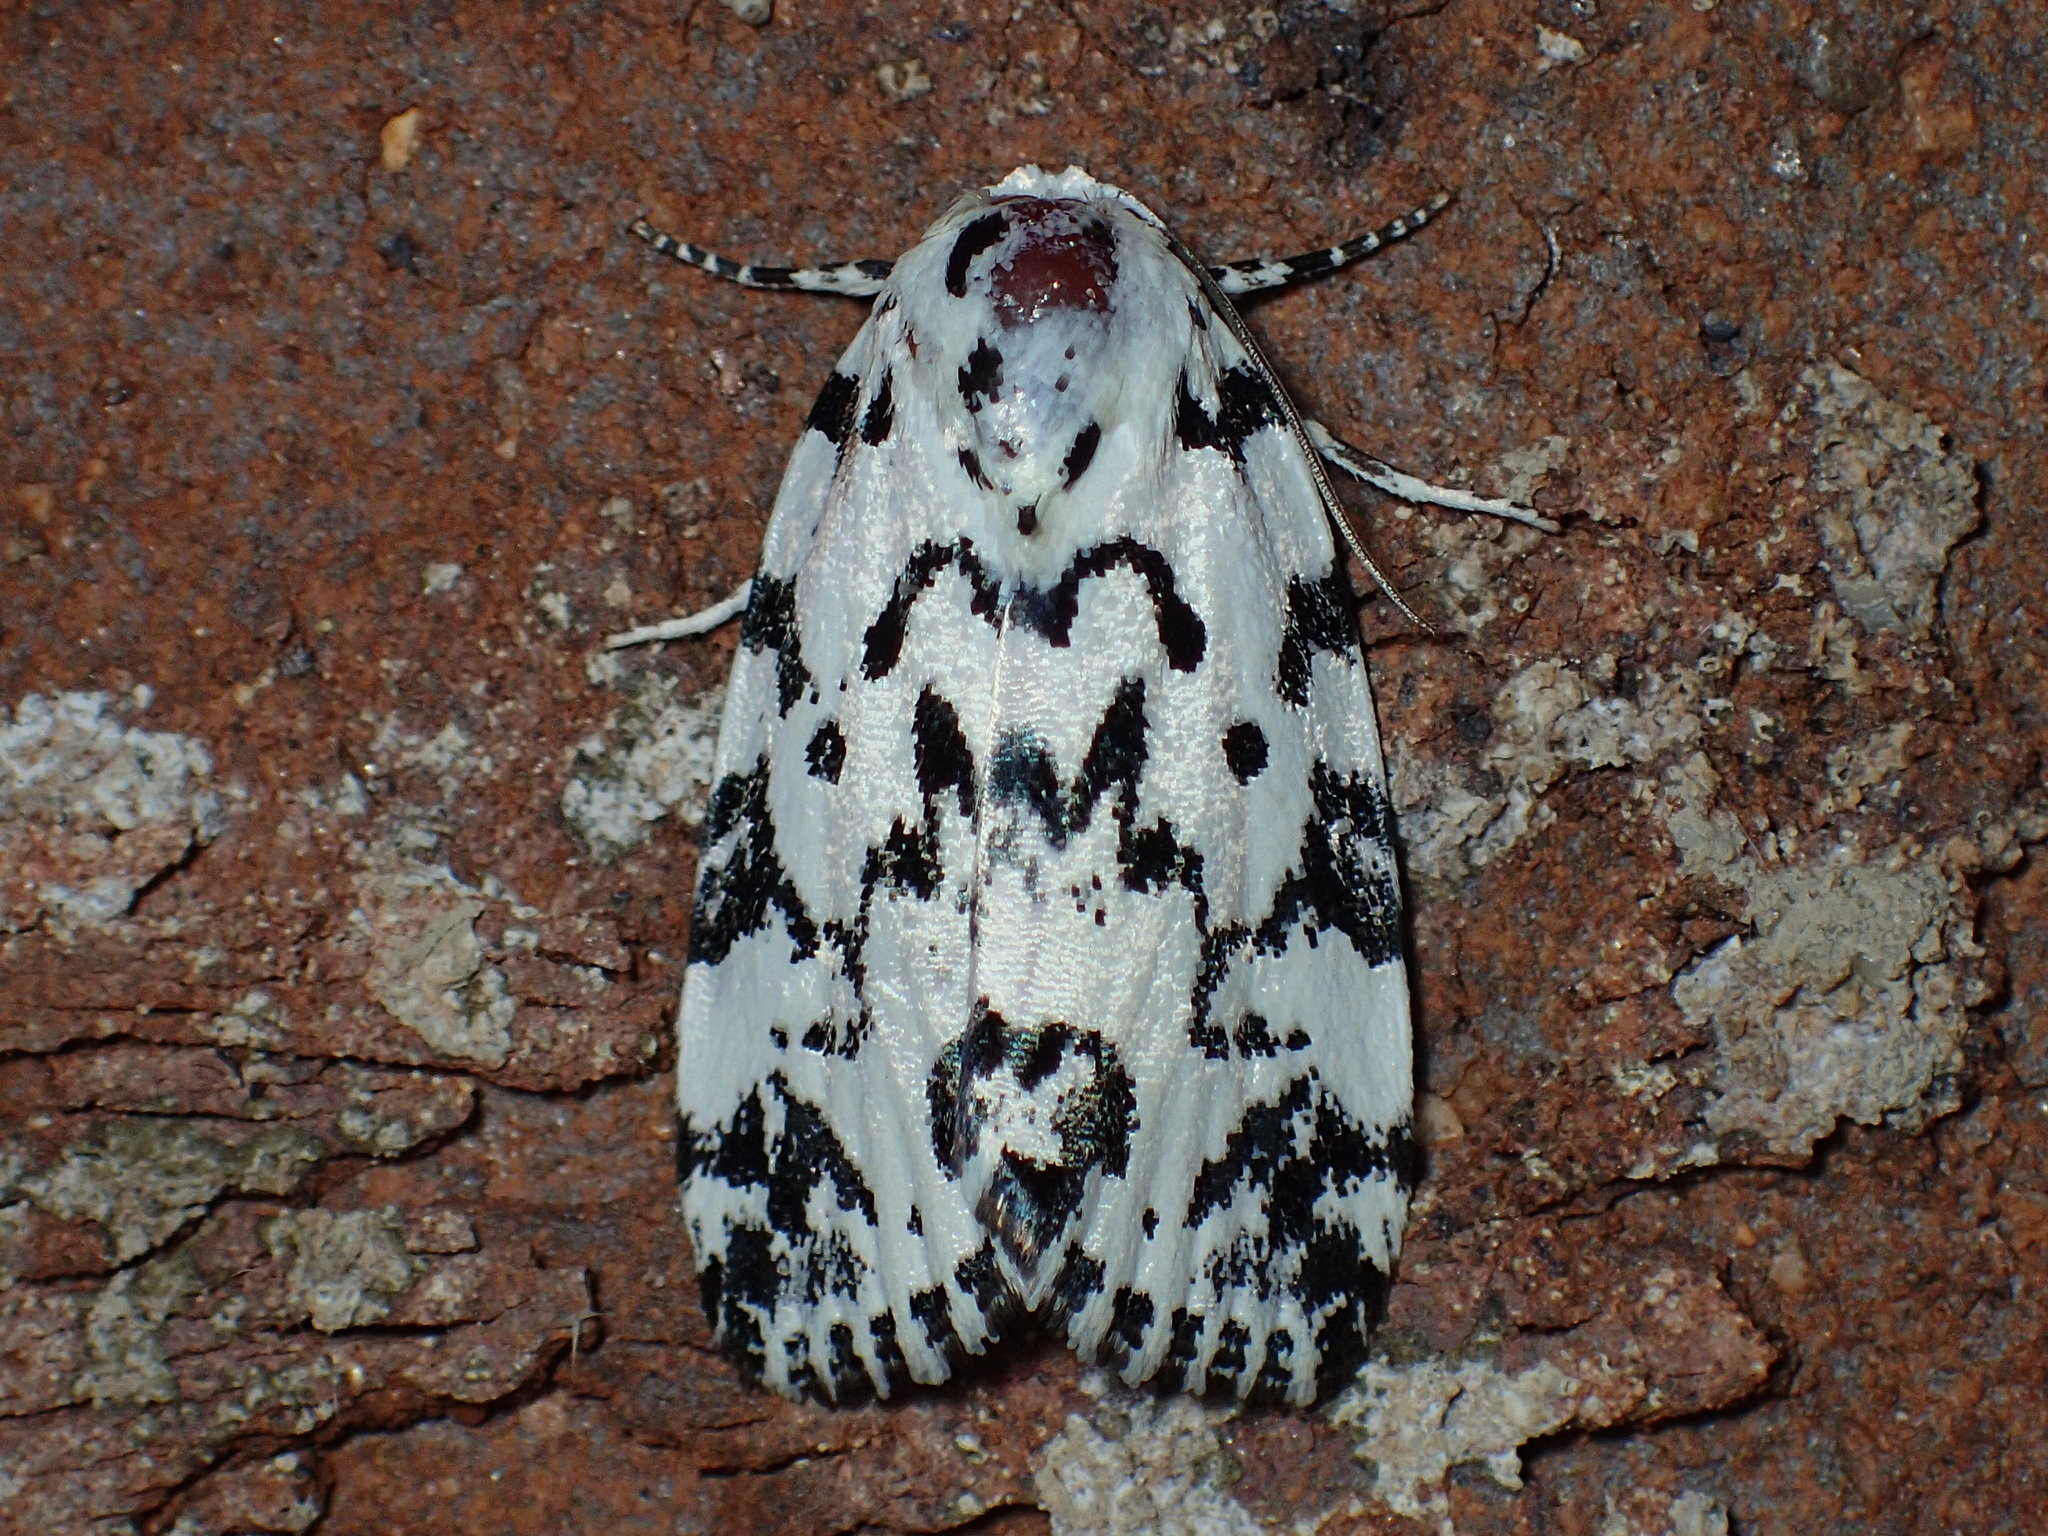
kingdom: Animalia
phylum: Arthropoda
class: Insecta
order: Lepidoptera
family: Noctuidae
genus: Polygrammate
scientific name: Polygrammate hebraeicum
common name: Hebrew moth
